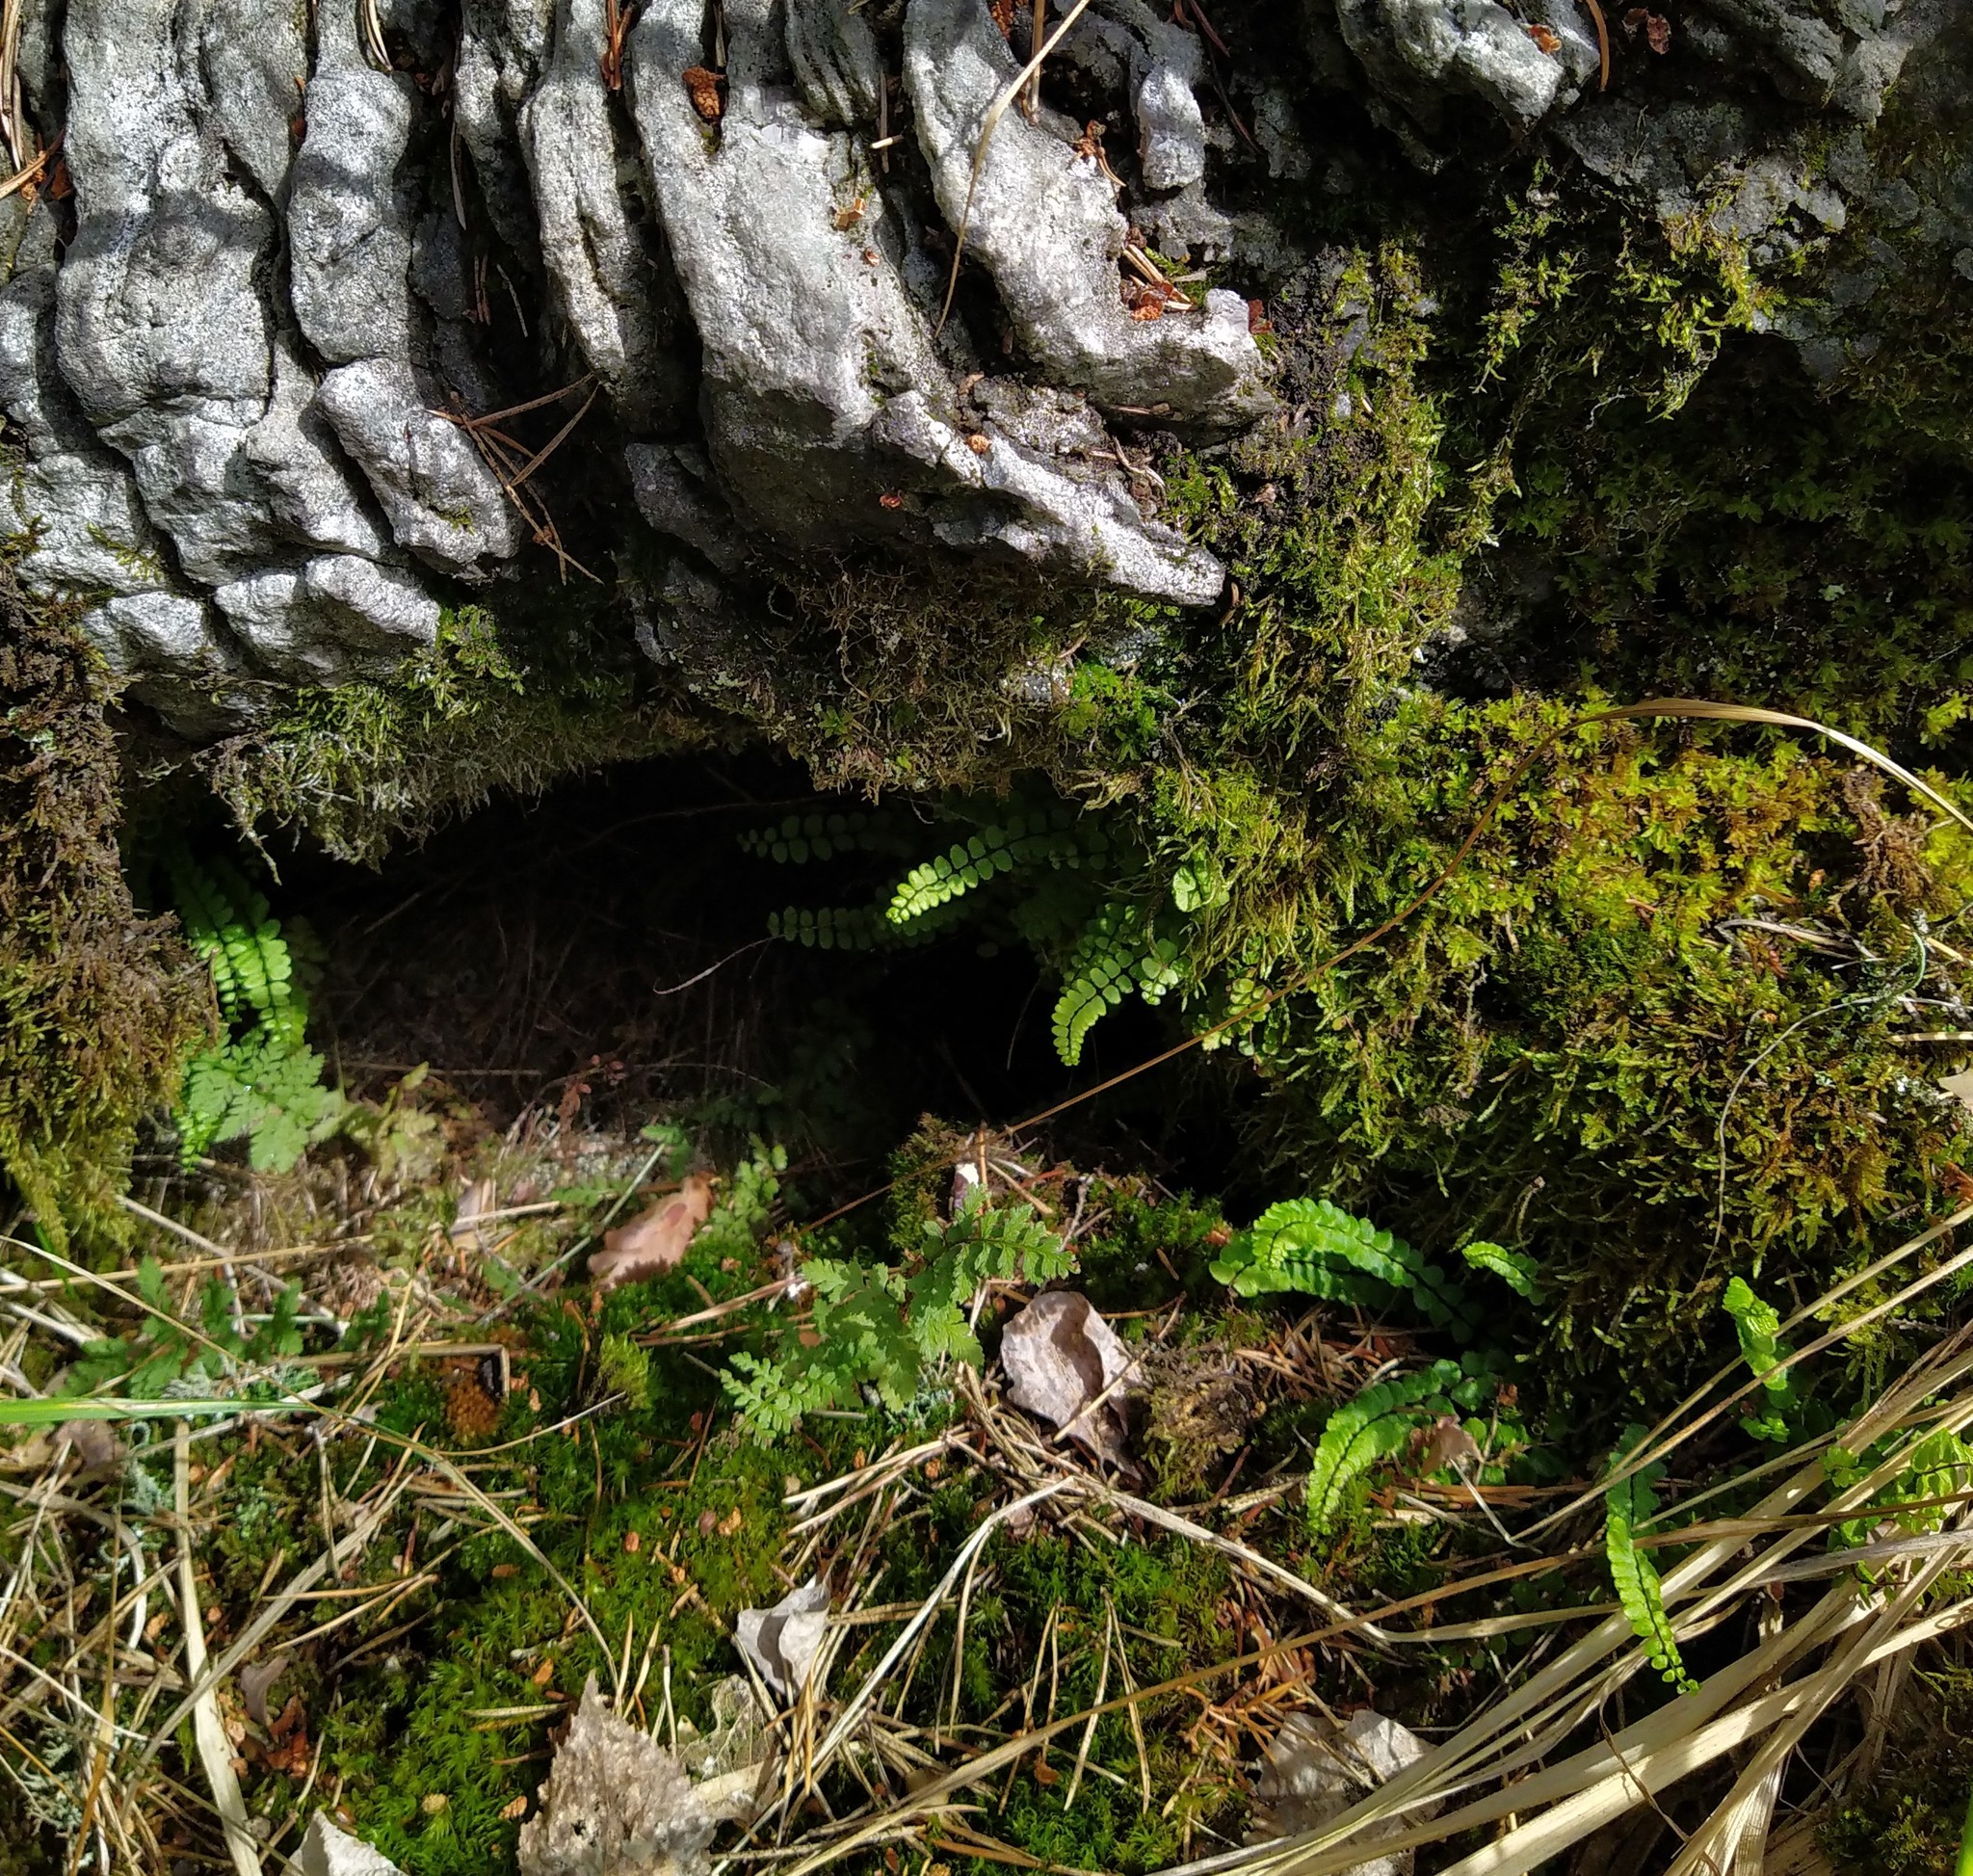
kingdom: Plantae
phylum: Tracheophyta
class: Polypodiopsida
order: Polypodiales
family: Aspleniaceae
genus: Asplenium
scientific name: Asplenium trichomanes
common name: Maidenhair spleenwort
